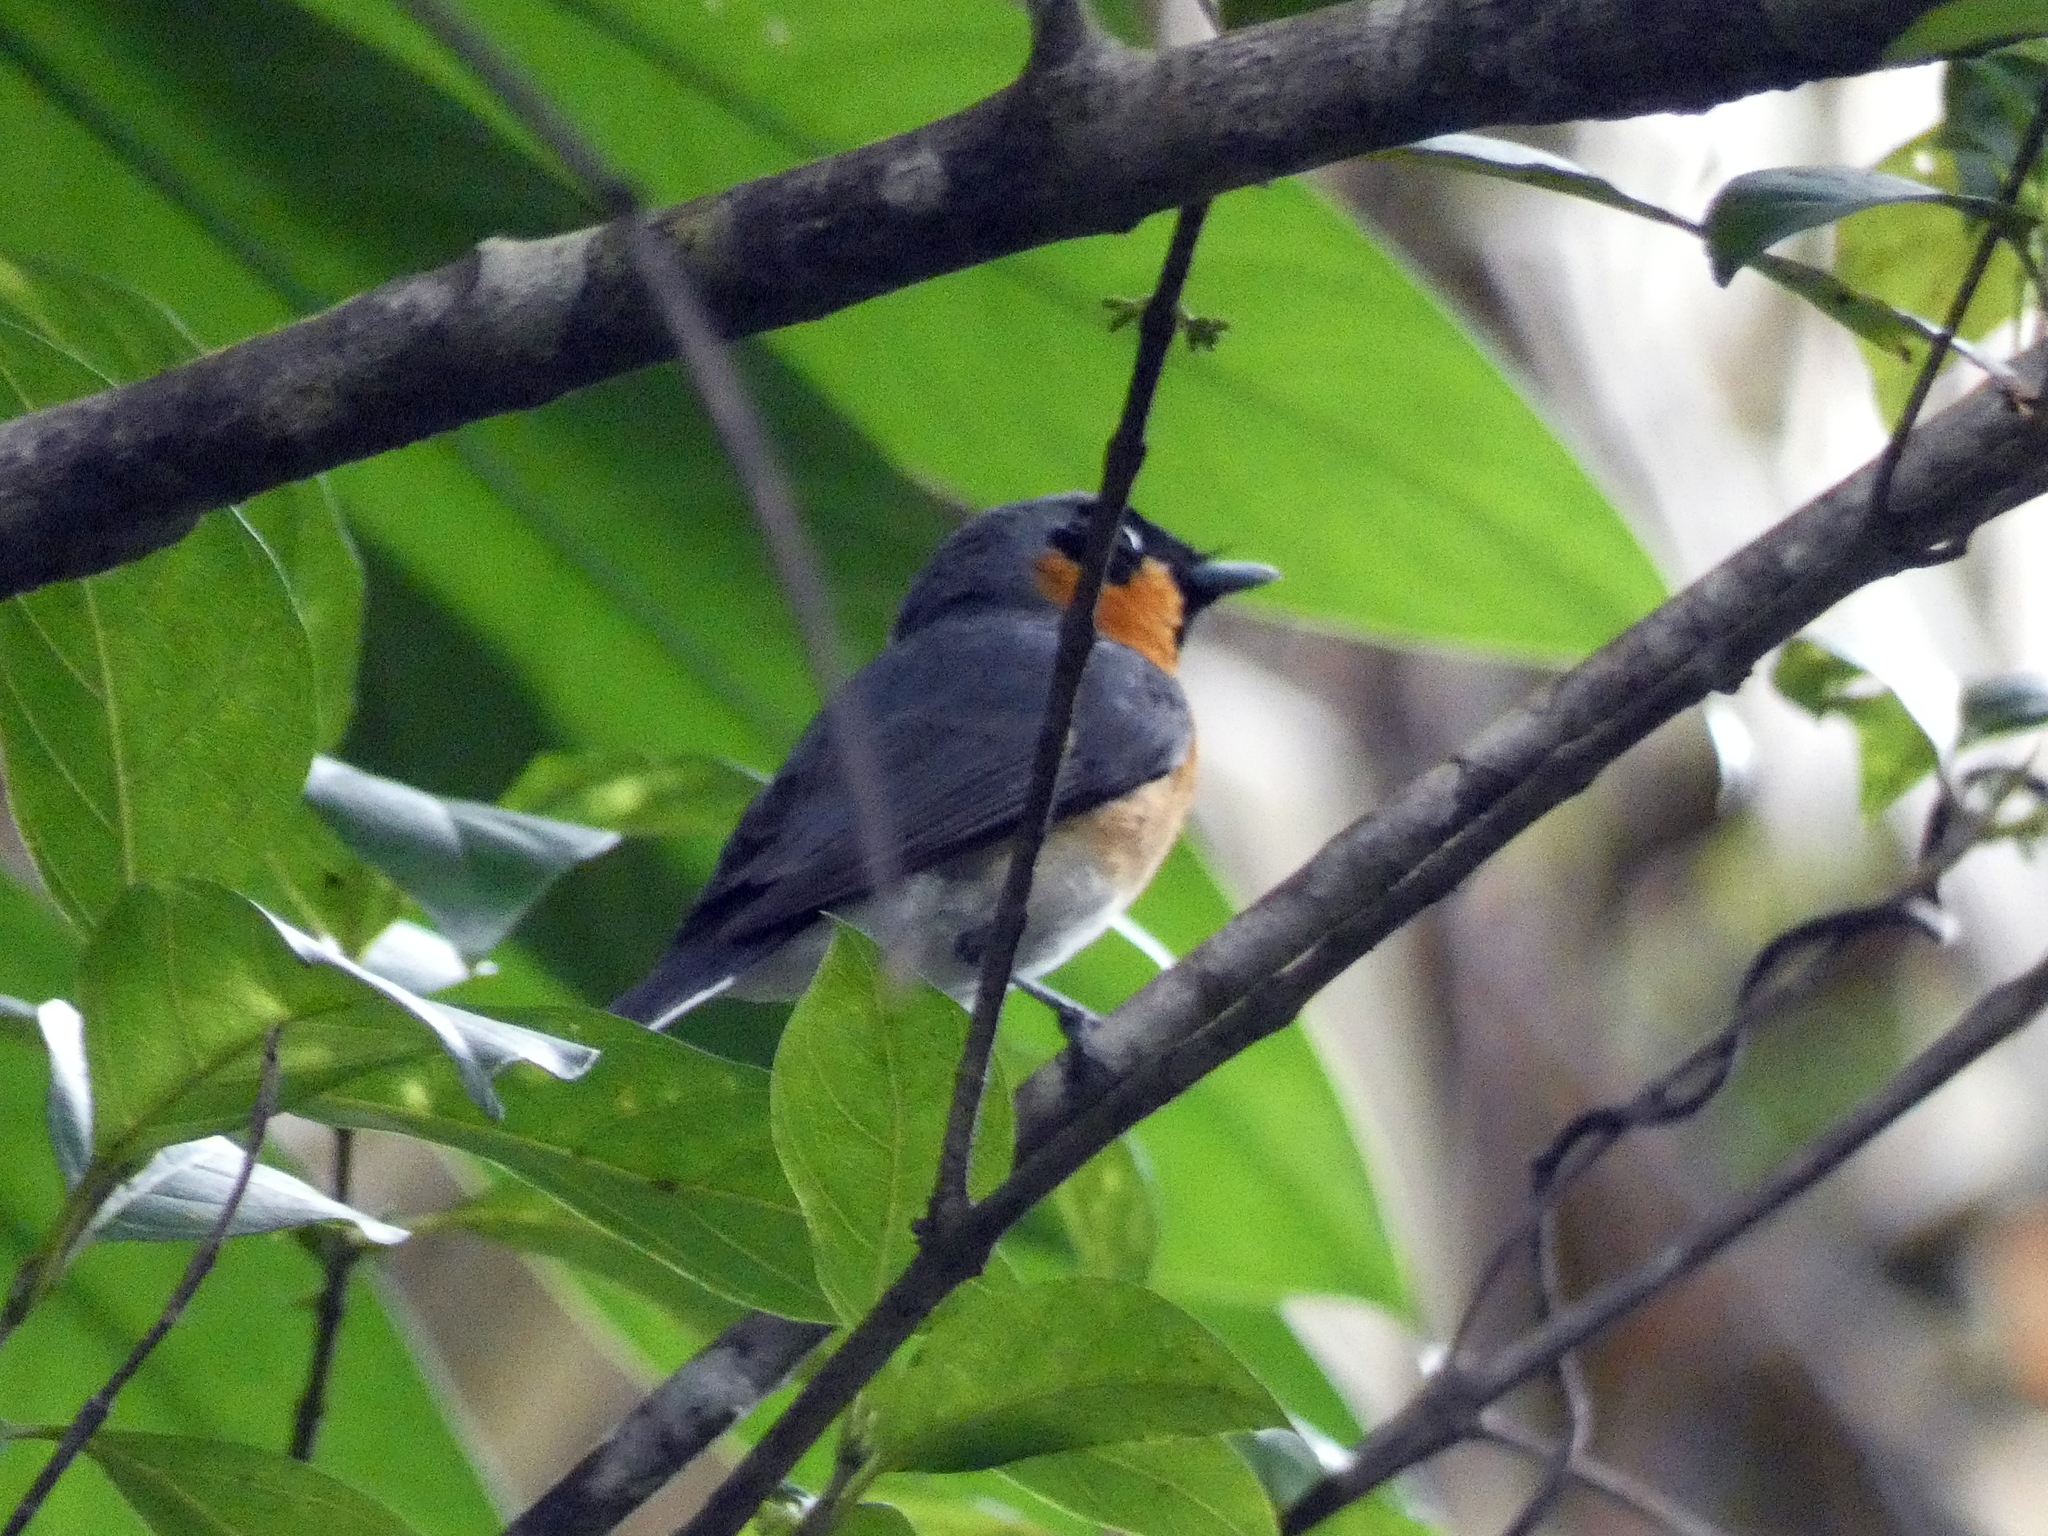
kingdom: Animalia
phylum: Chordata
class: Aves
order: Passeriformes
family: Monarchidae
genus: Symposiachrus
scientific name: Symposiachrus trivirgatus
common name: Spectacled monarch
